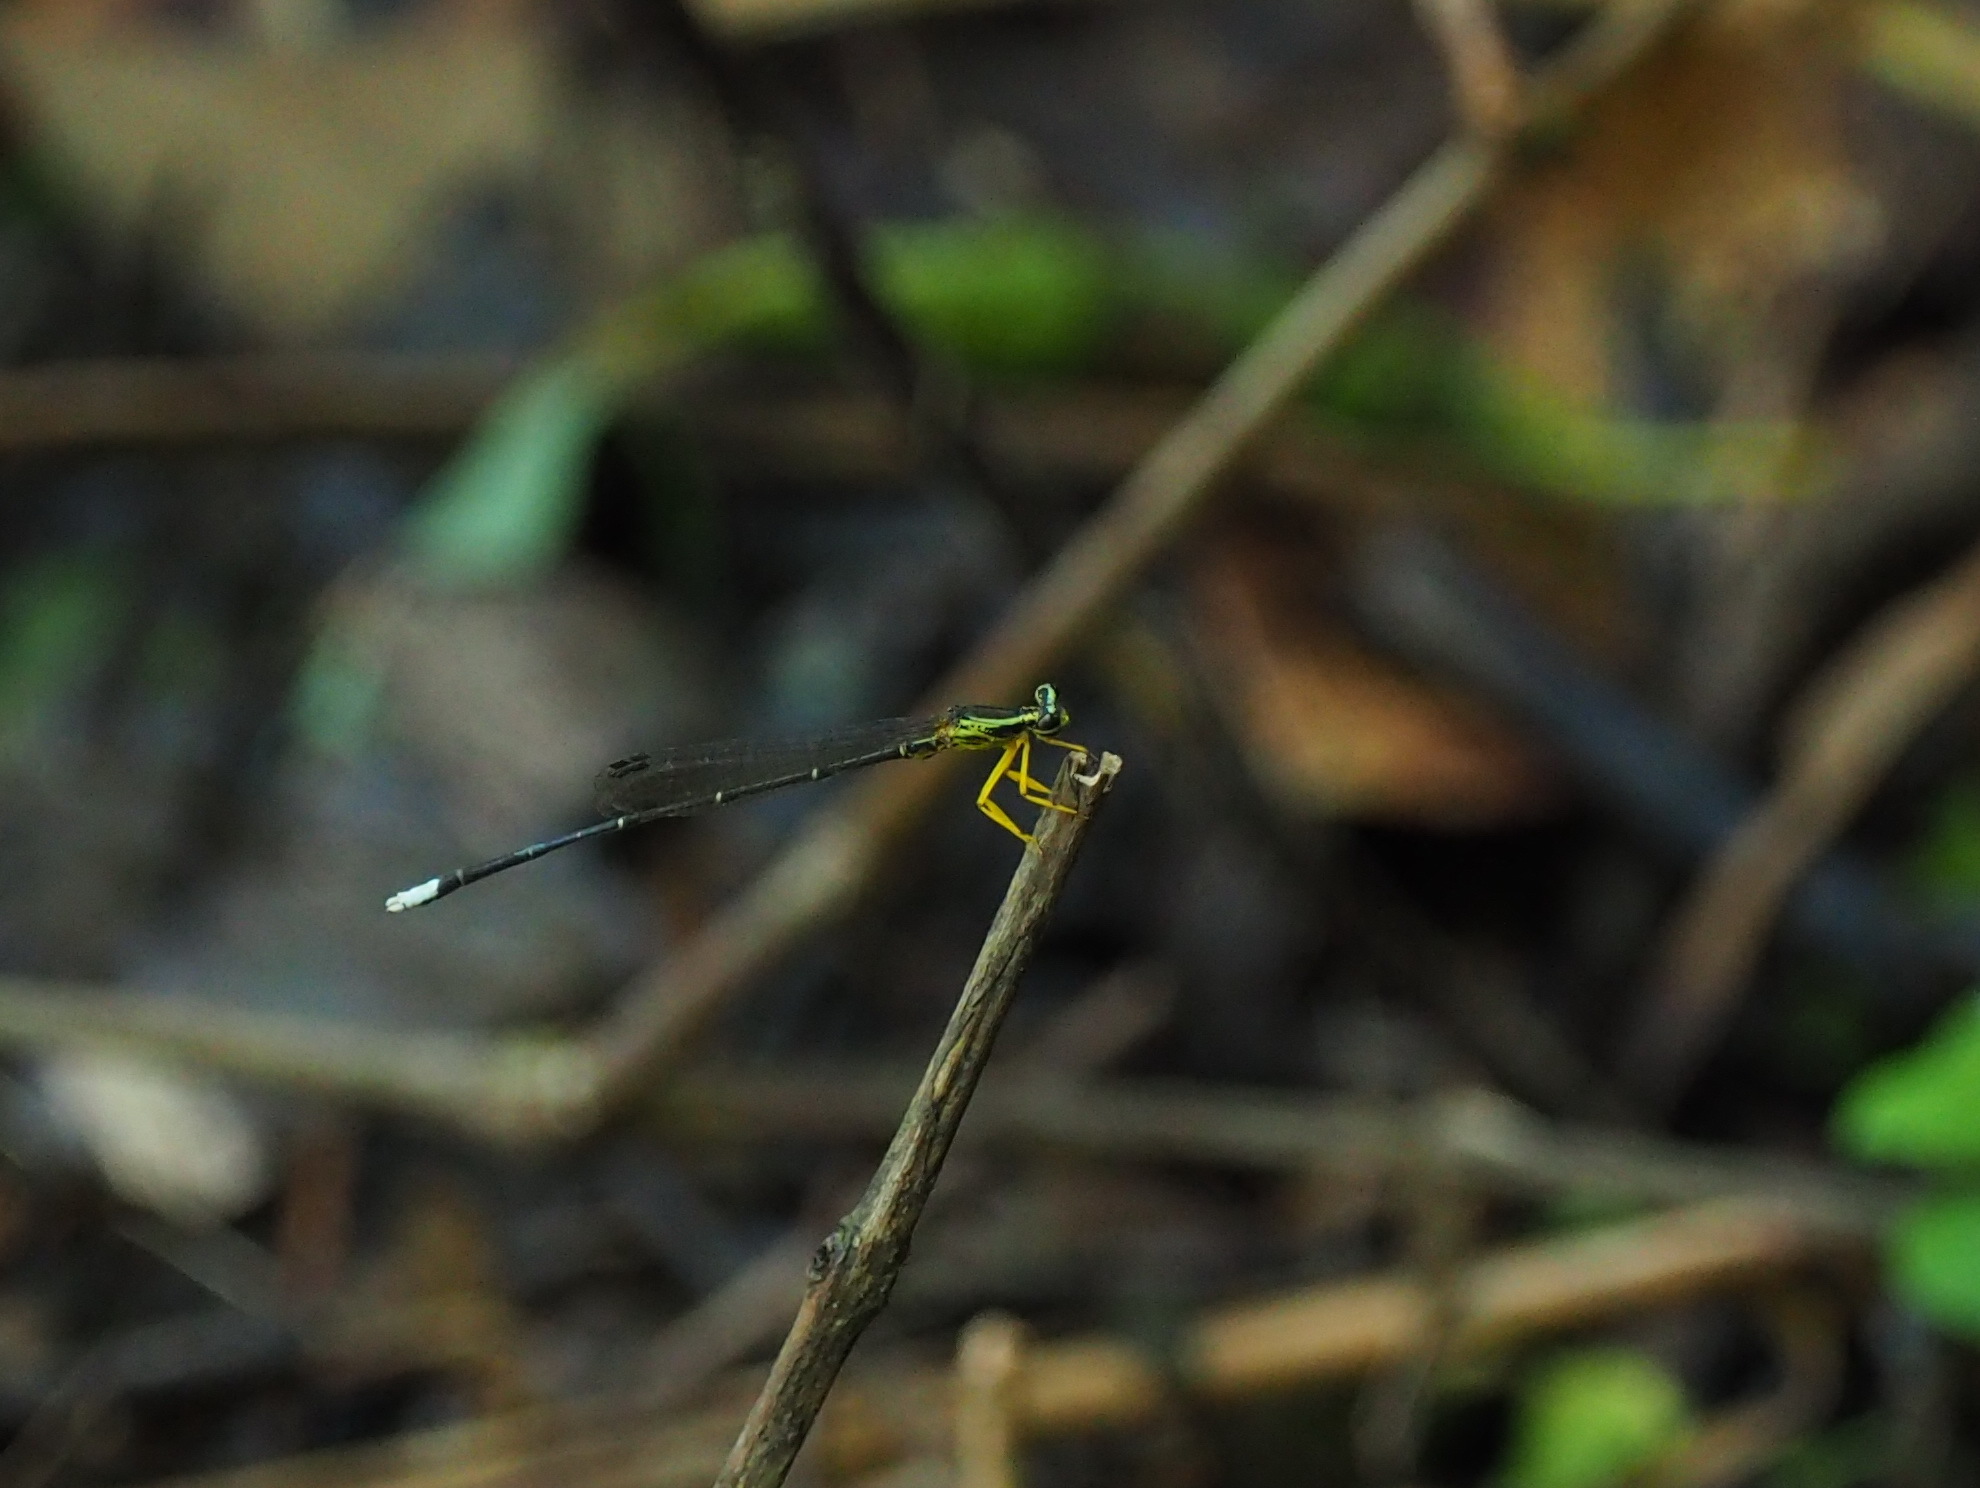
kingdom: Animalia
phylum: Arthropoda
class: Insecta
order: Odonata
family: Platycnemididae
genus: Copera
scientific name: Copera marginipes
